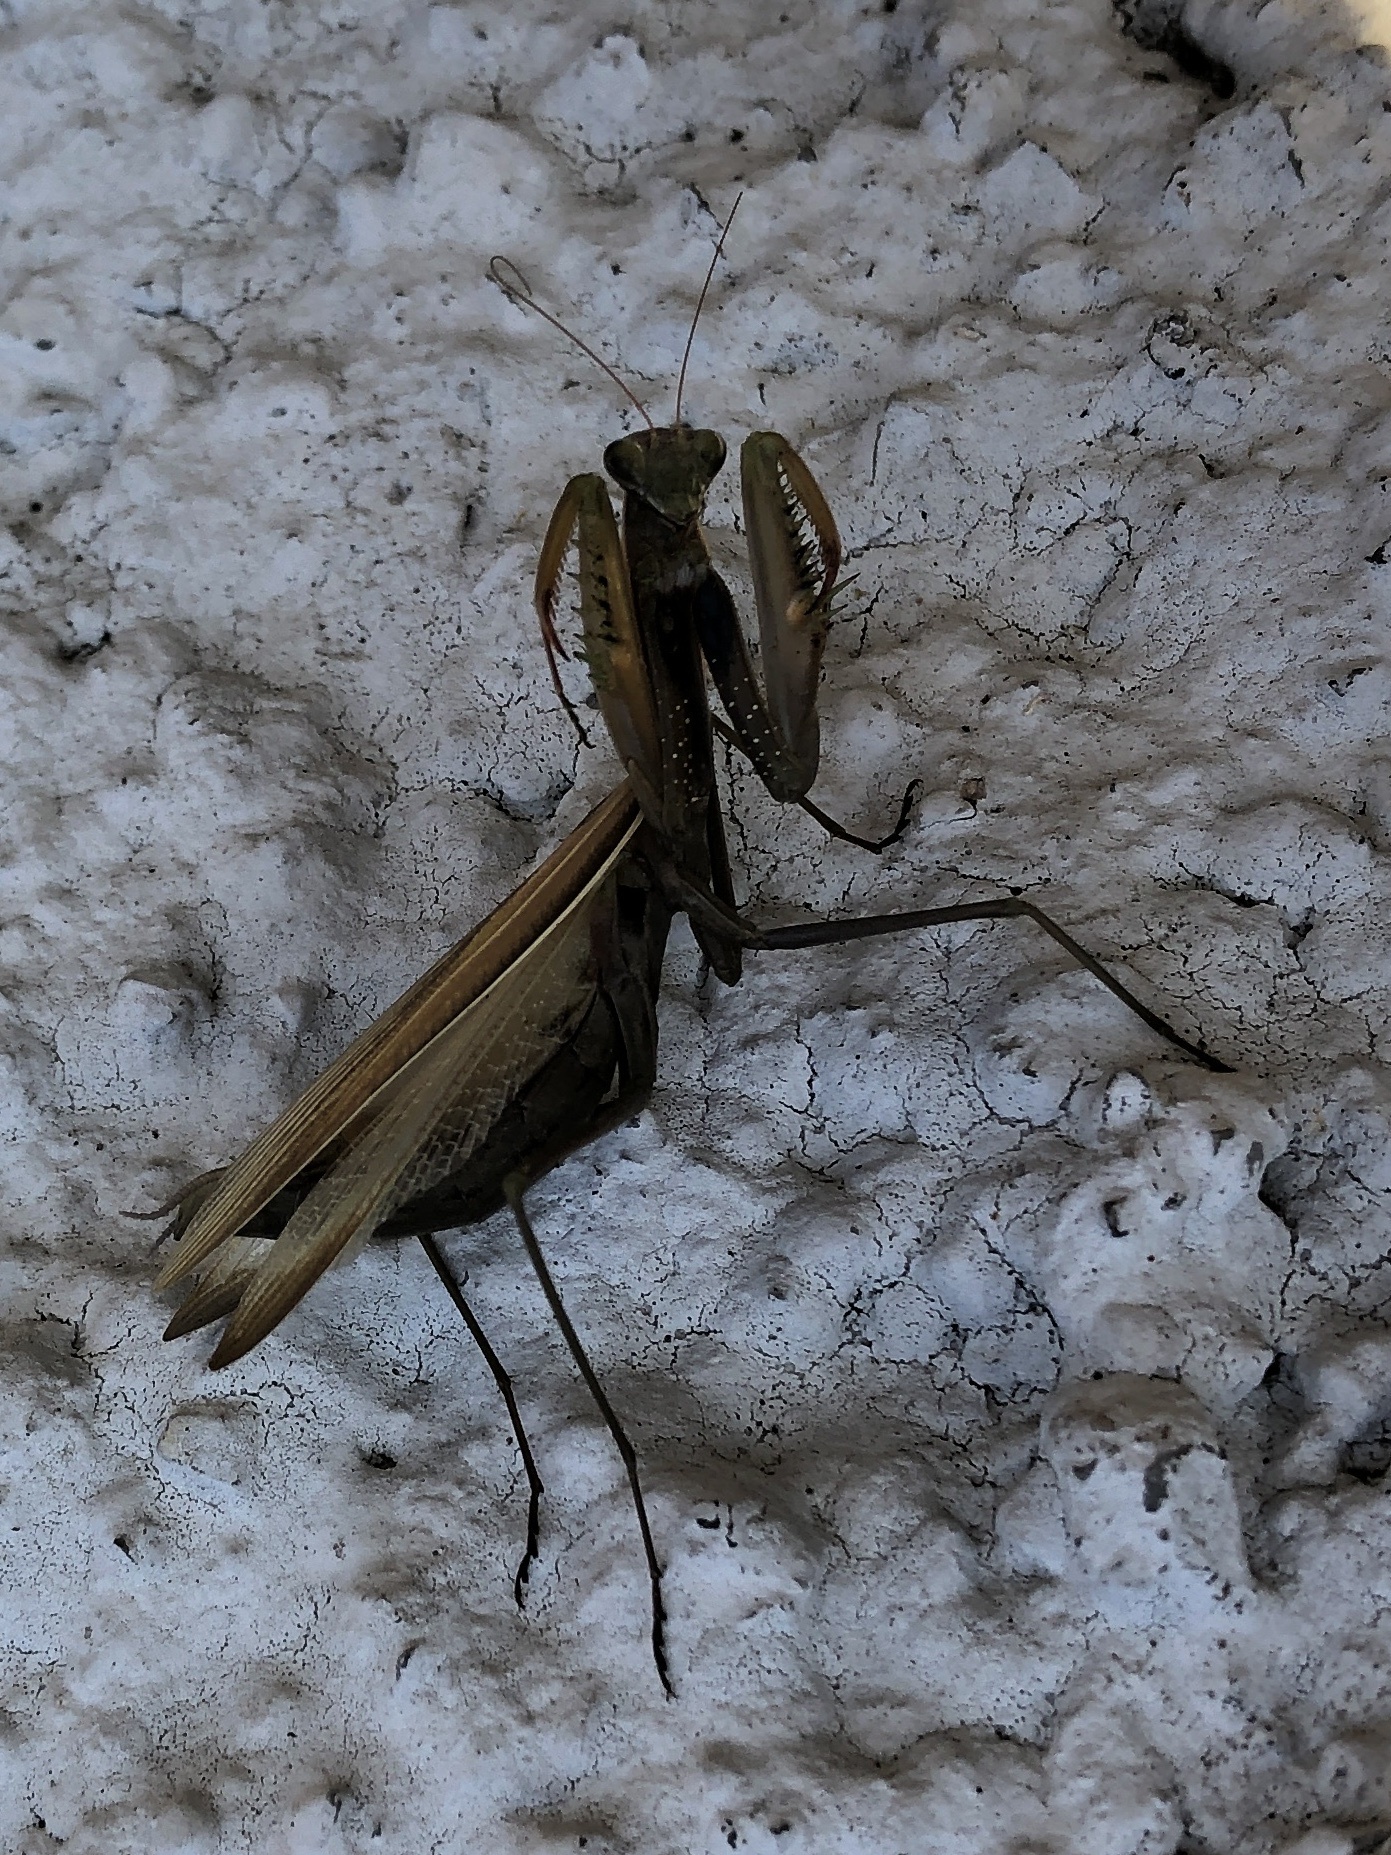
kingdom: Animalia
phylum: Arthropoda
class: Insecta
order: Mantodea
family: Mantidae
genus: Mantis
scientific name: Mantis religiosa
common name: Praying mantis
